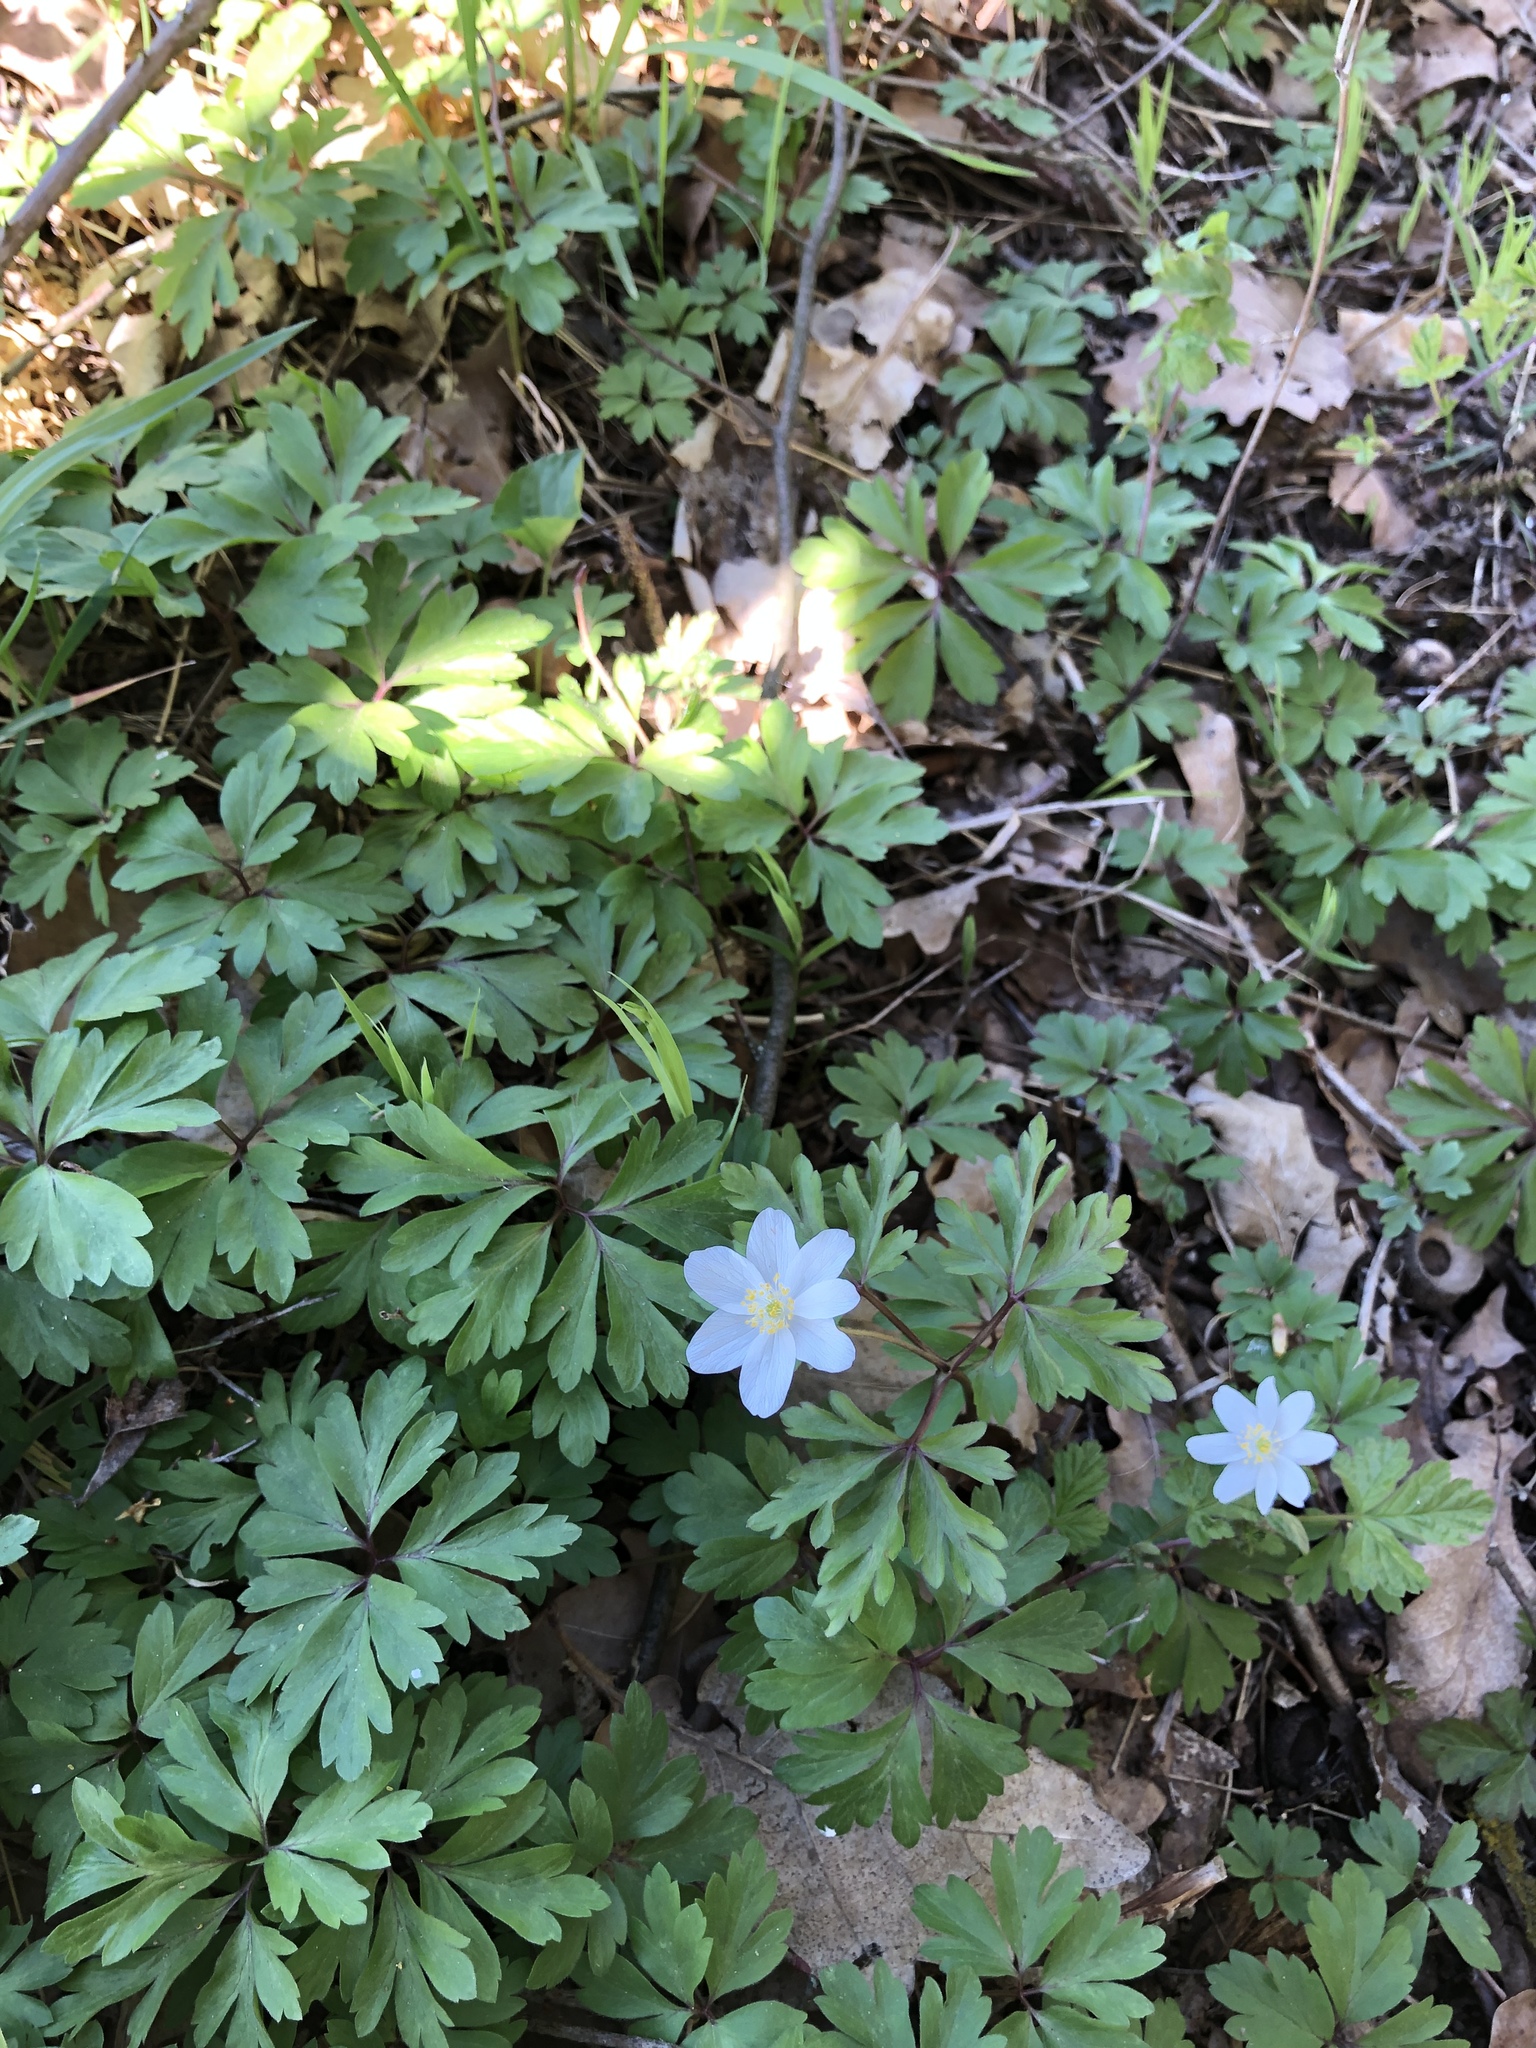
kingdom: Plantae
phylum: Tracheophyta
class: Magnoliopsida
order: Ranunculales
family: Ranunculaceae
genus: Anemone
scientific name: Anemone nemorosa
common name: Wood anemone
